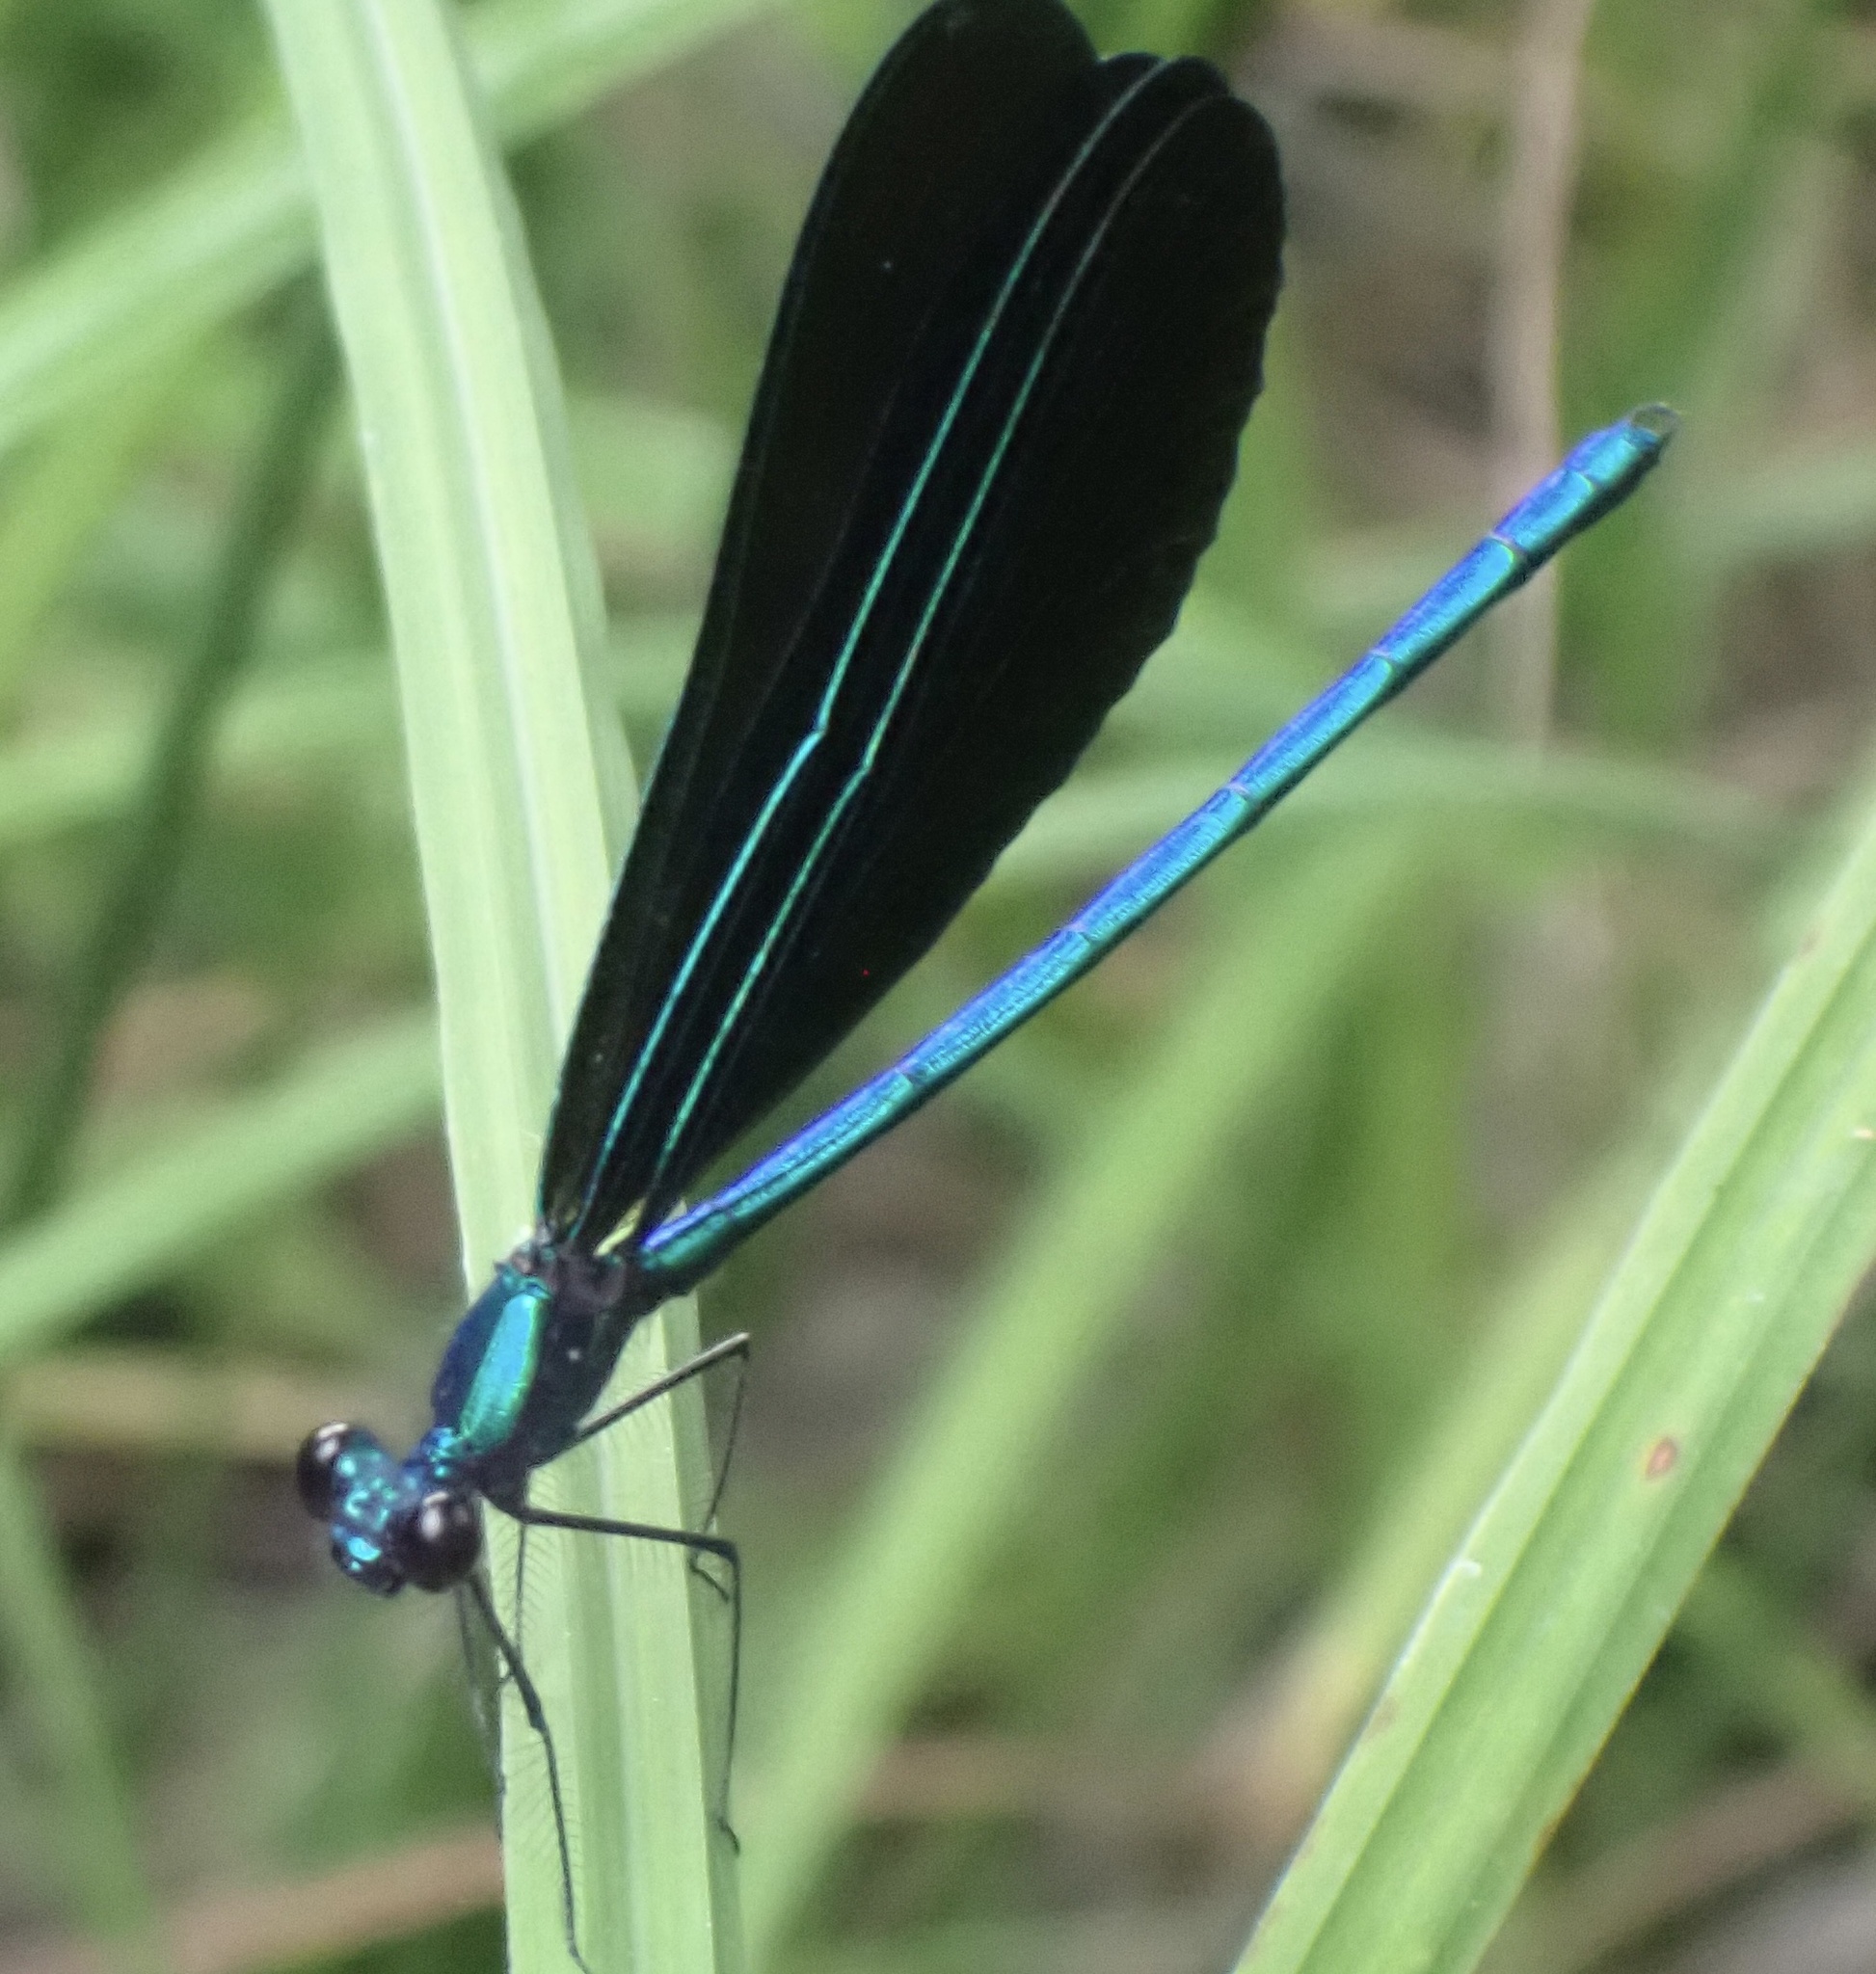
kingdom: Animalia
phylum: Arthropoda
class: Insecta
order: Odonata
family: Calopterygidae
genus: Calopteryx
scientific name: Calopteryx maculata
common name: Ebony jewelwing
